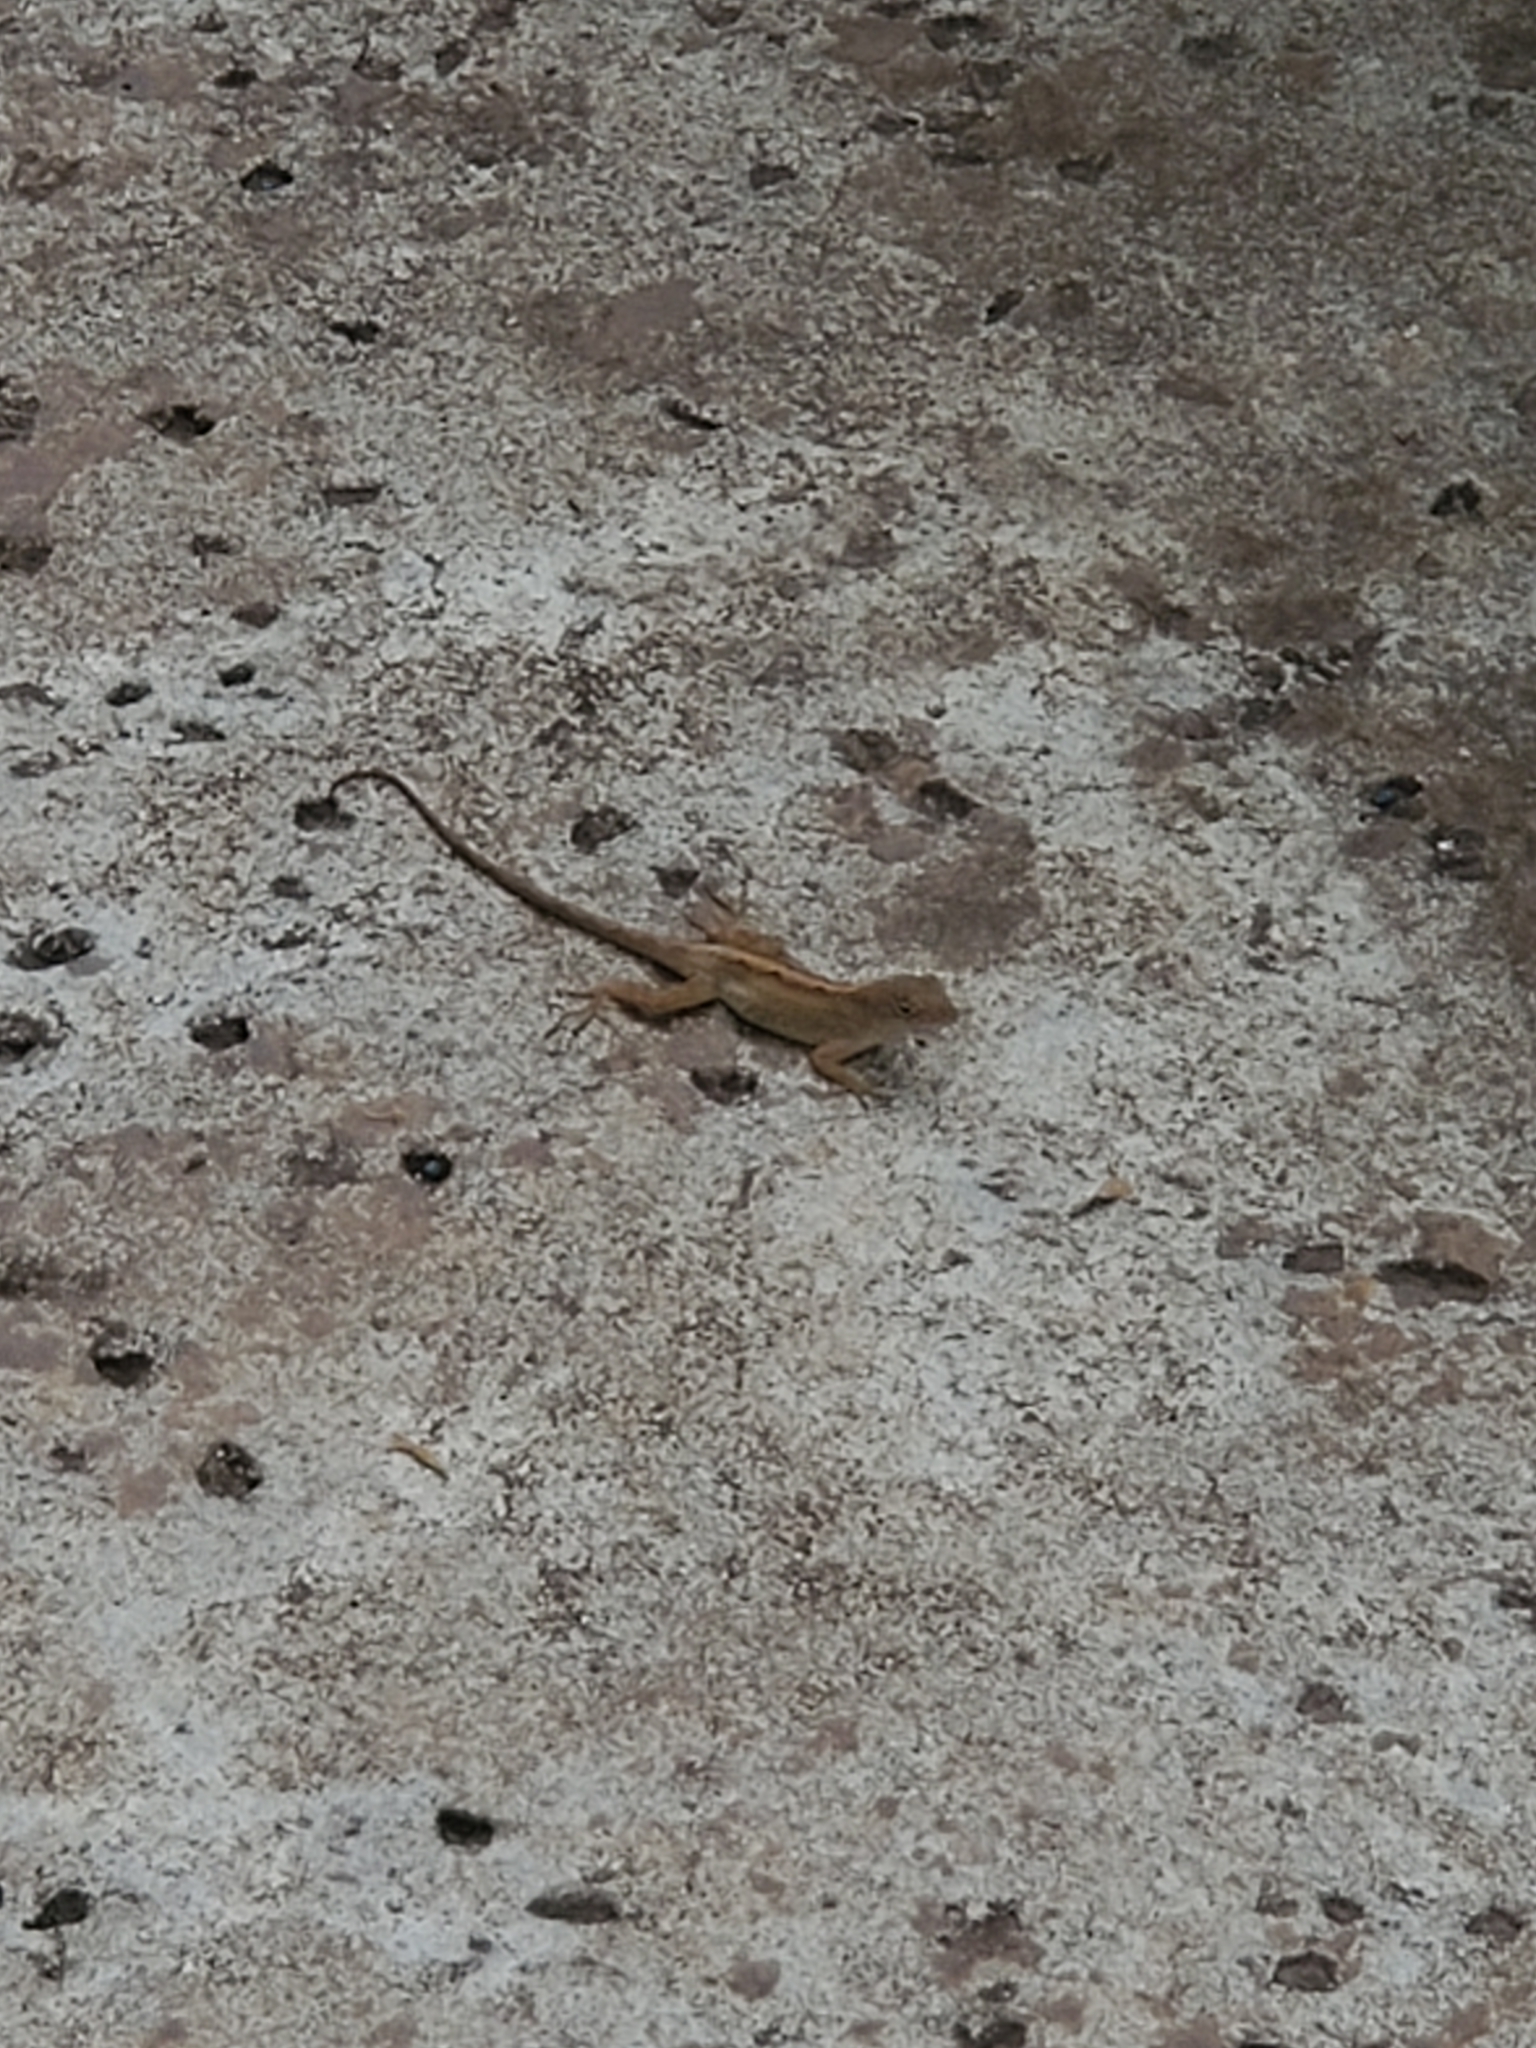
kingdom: Animalia
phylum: Chordata
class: Squamata
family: Dactyloidae
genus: Anolis
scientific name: Anolis sagrei
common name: Brown anole
